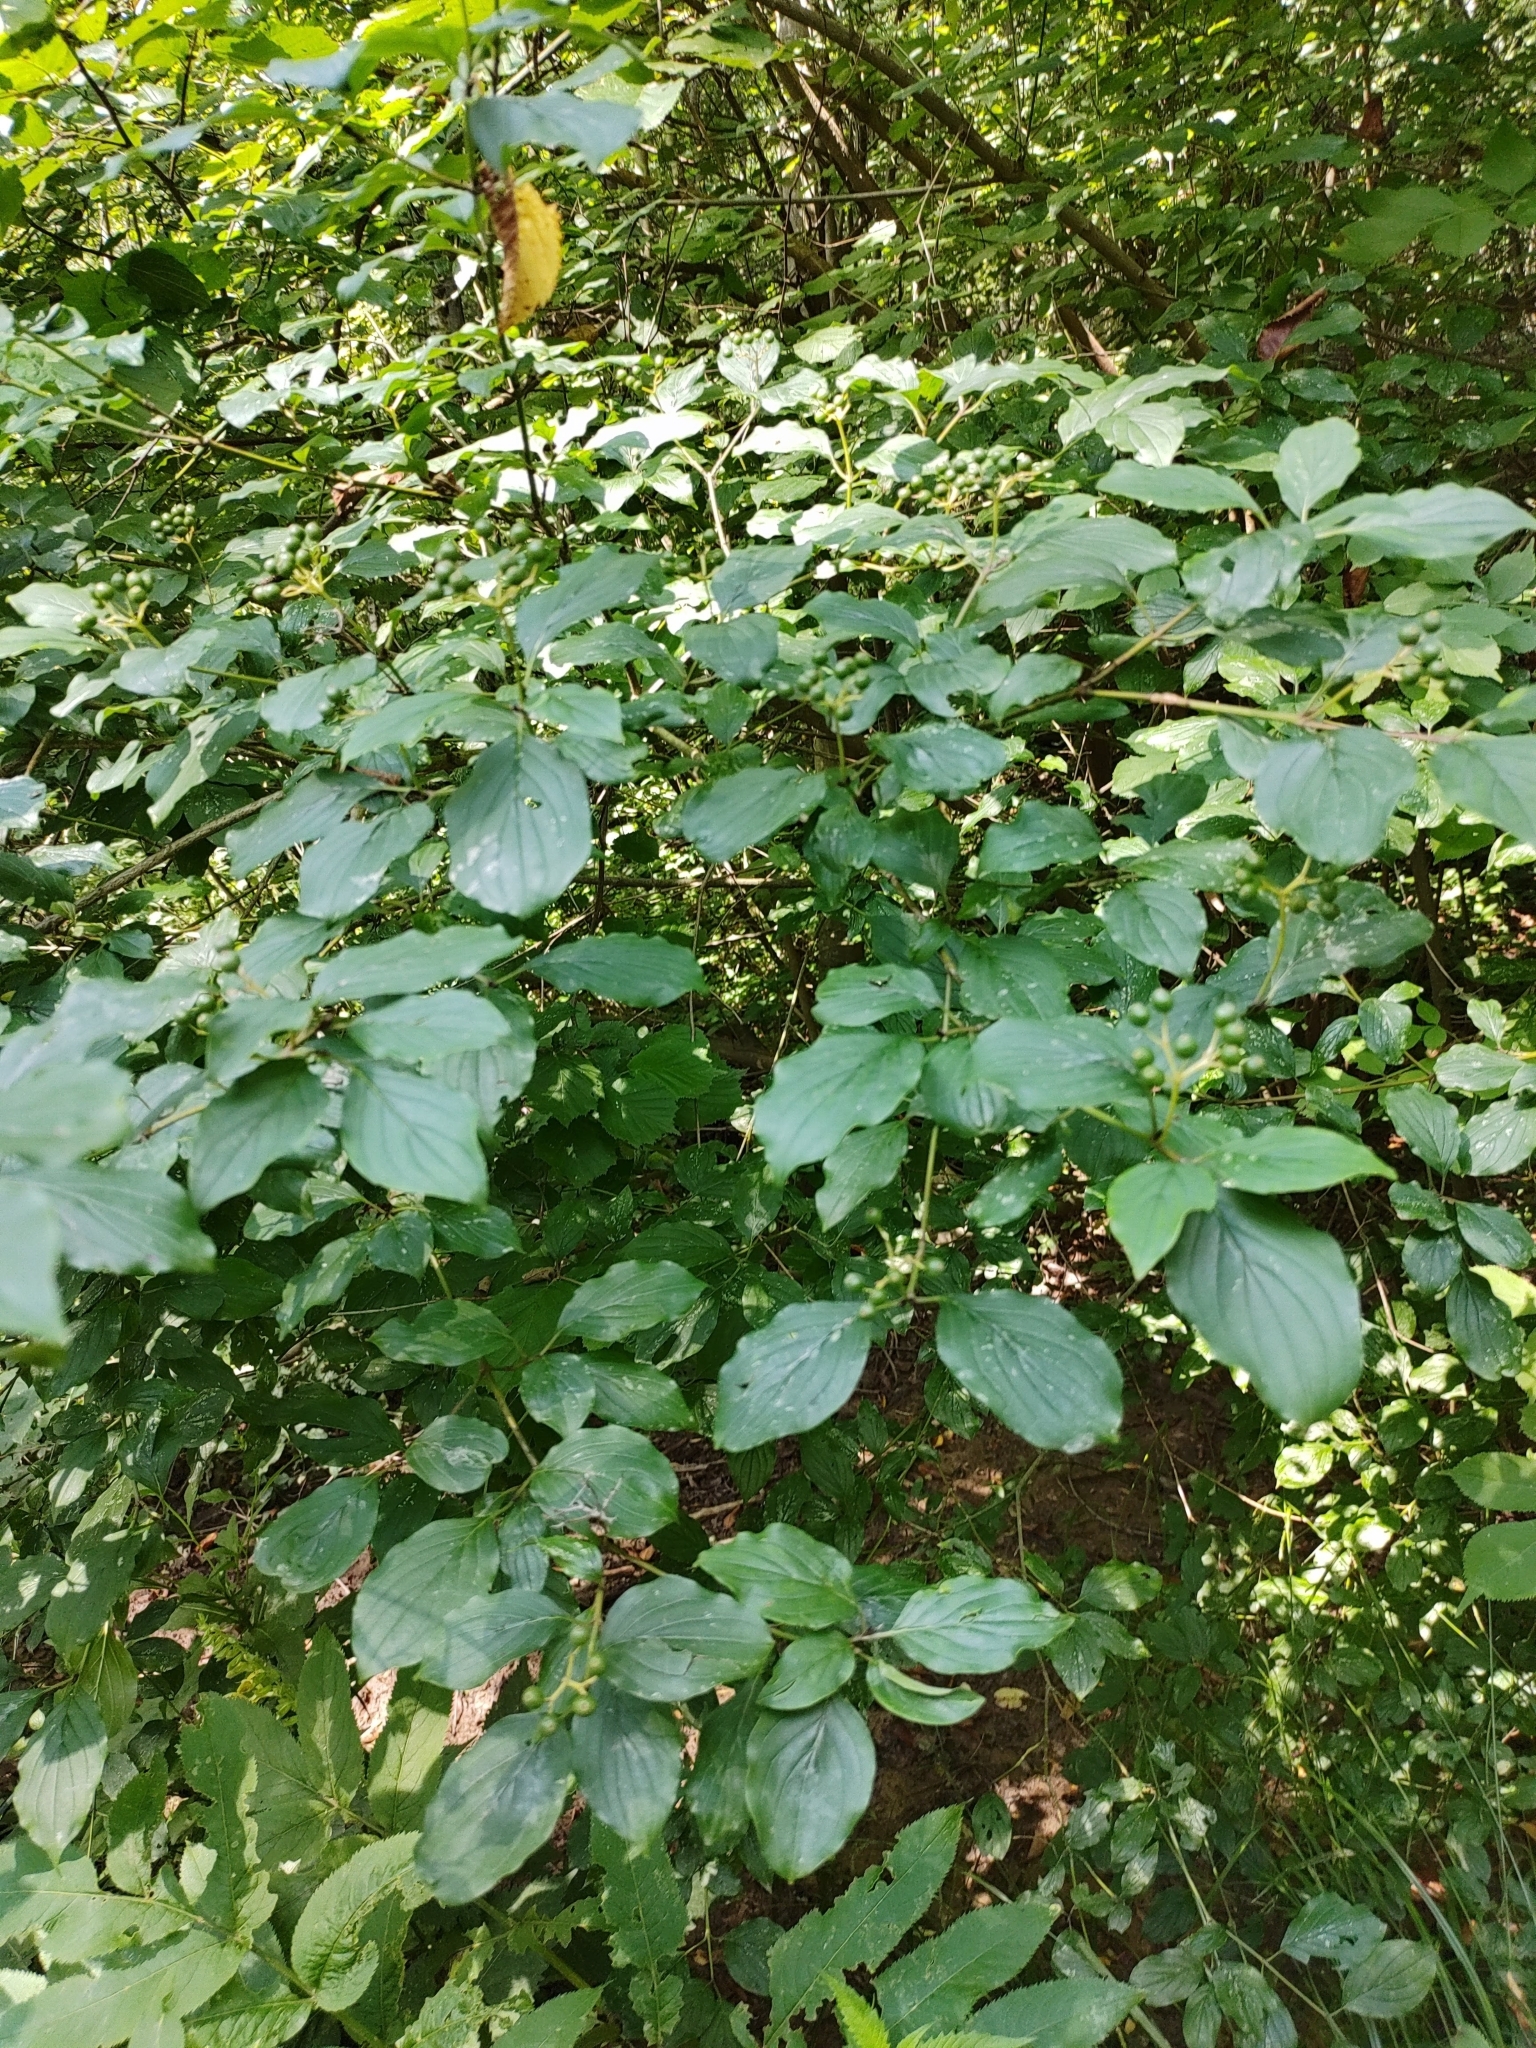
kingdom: Plantae
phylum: Tracheophyta
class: Magnoliopsida
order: Cornales
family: Cornaceae
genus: Cornus
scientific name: Cornus sanguinea
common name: Dogwood
